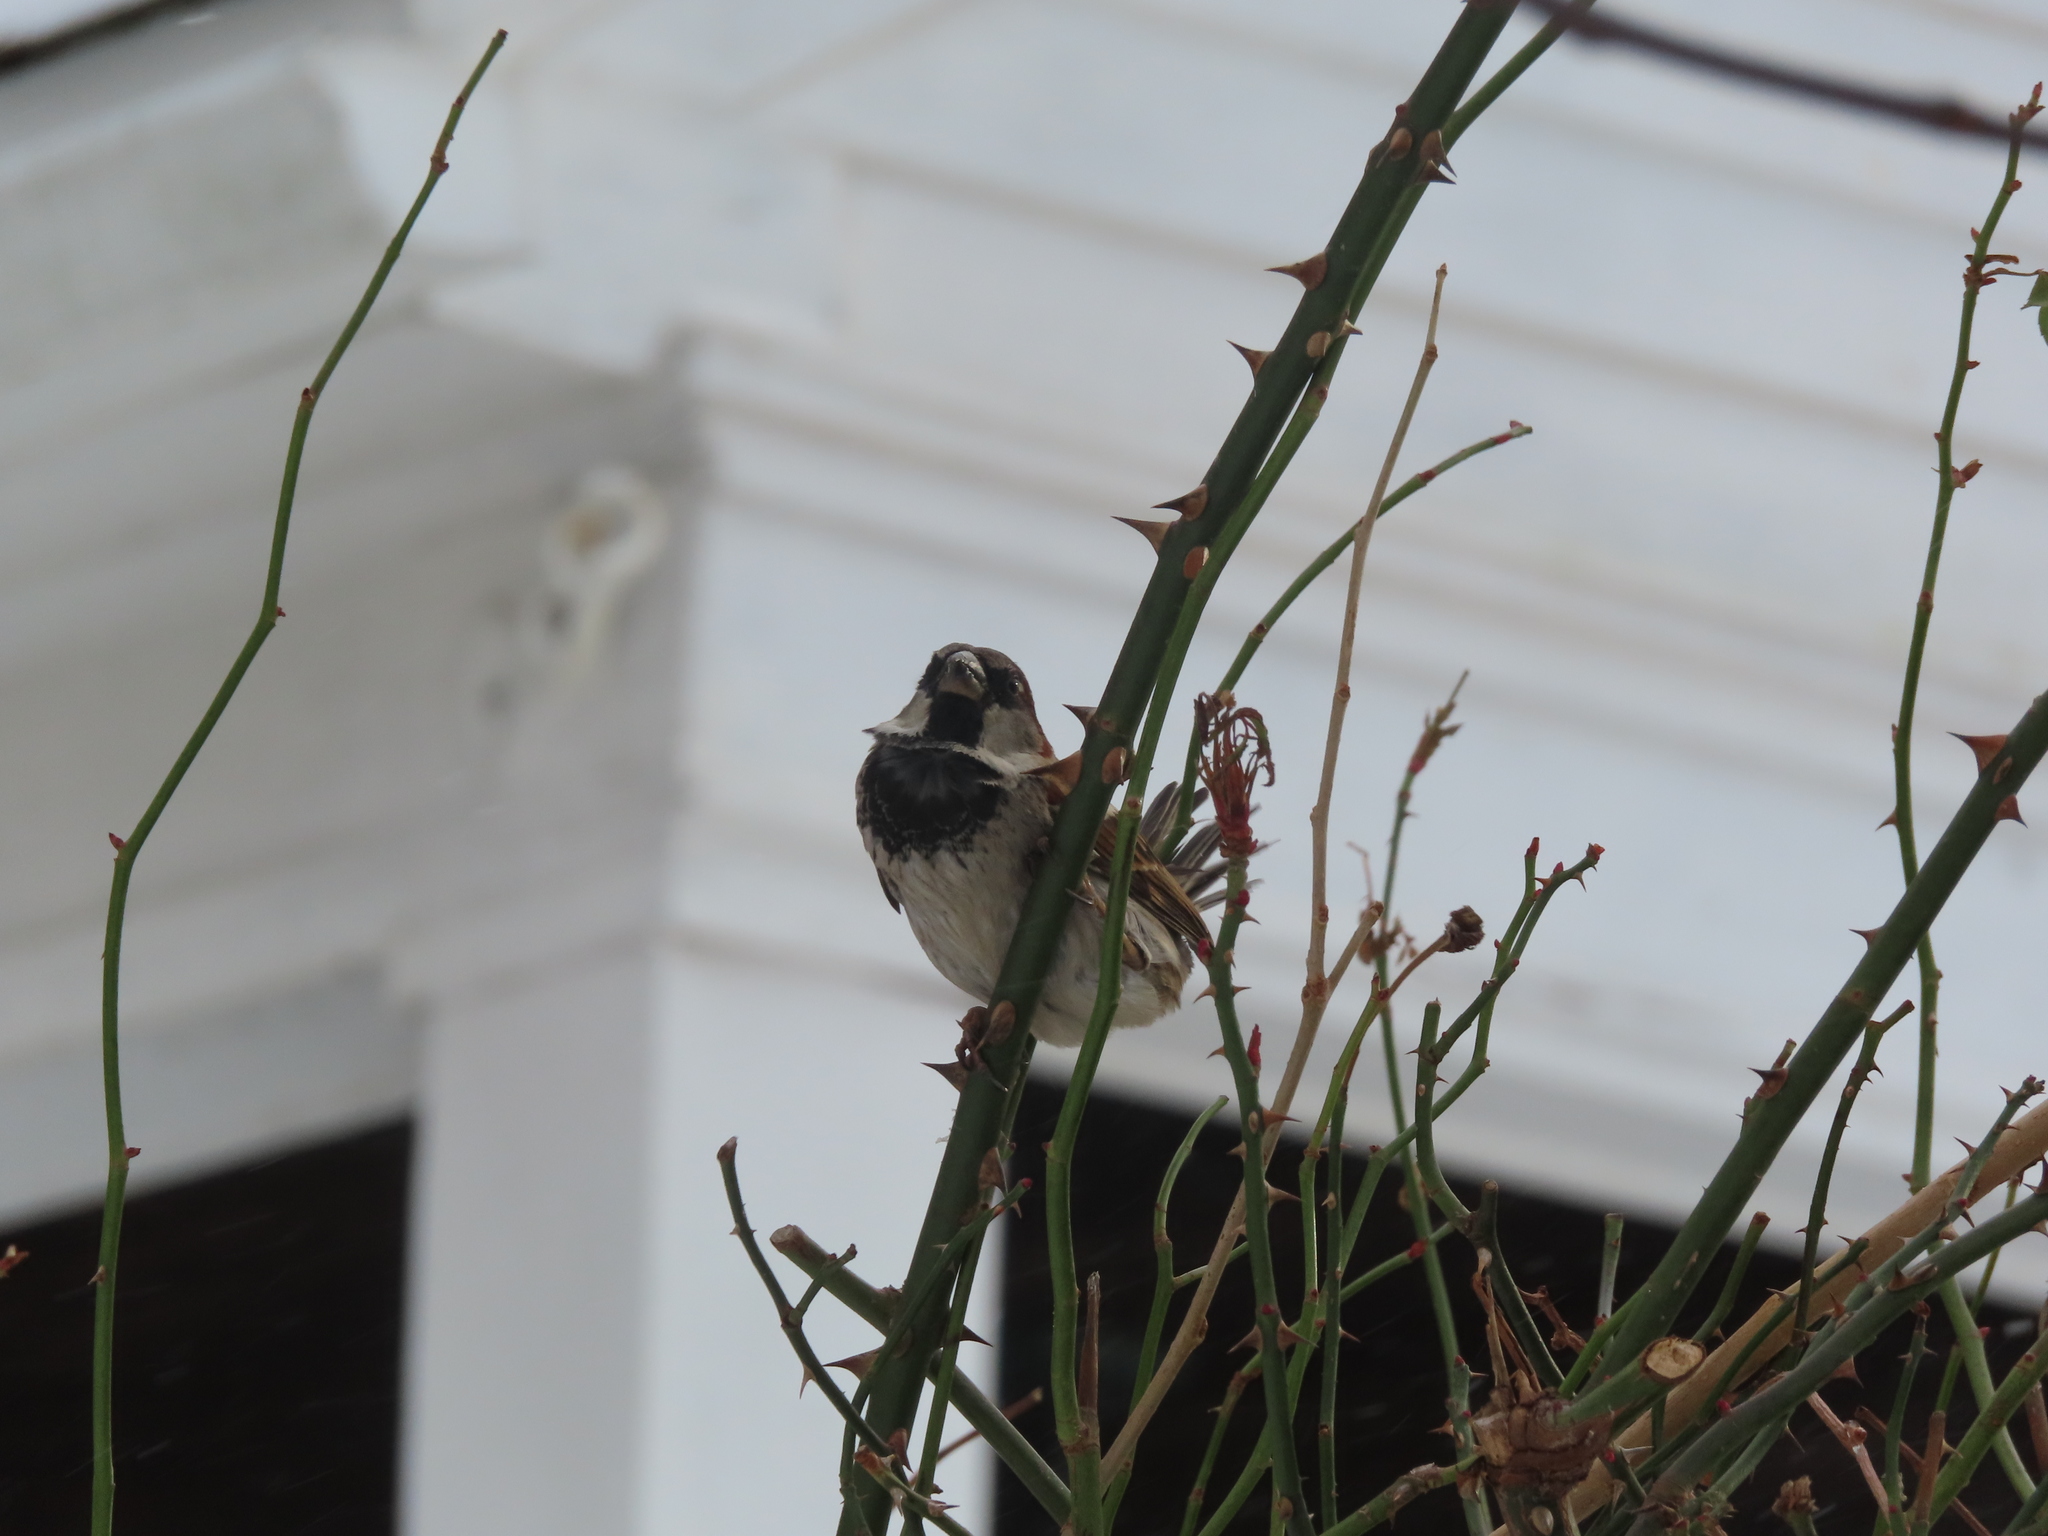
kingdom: Animalia
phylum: Chordata
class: Aves
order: Passeriformes
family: Passeridae
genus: Passer
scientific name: Passer domesticus
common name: House sparrow
